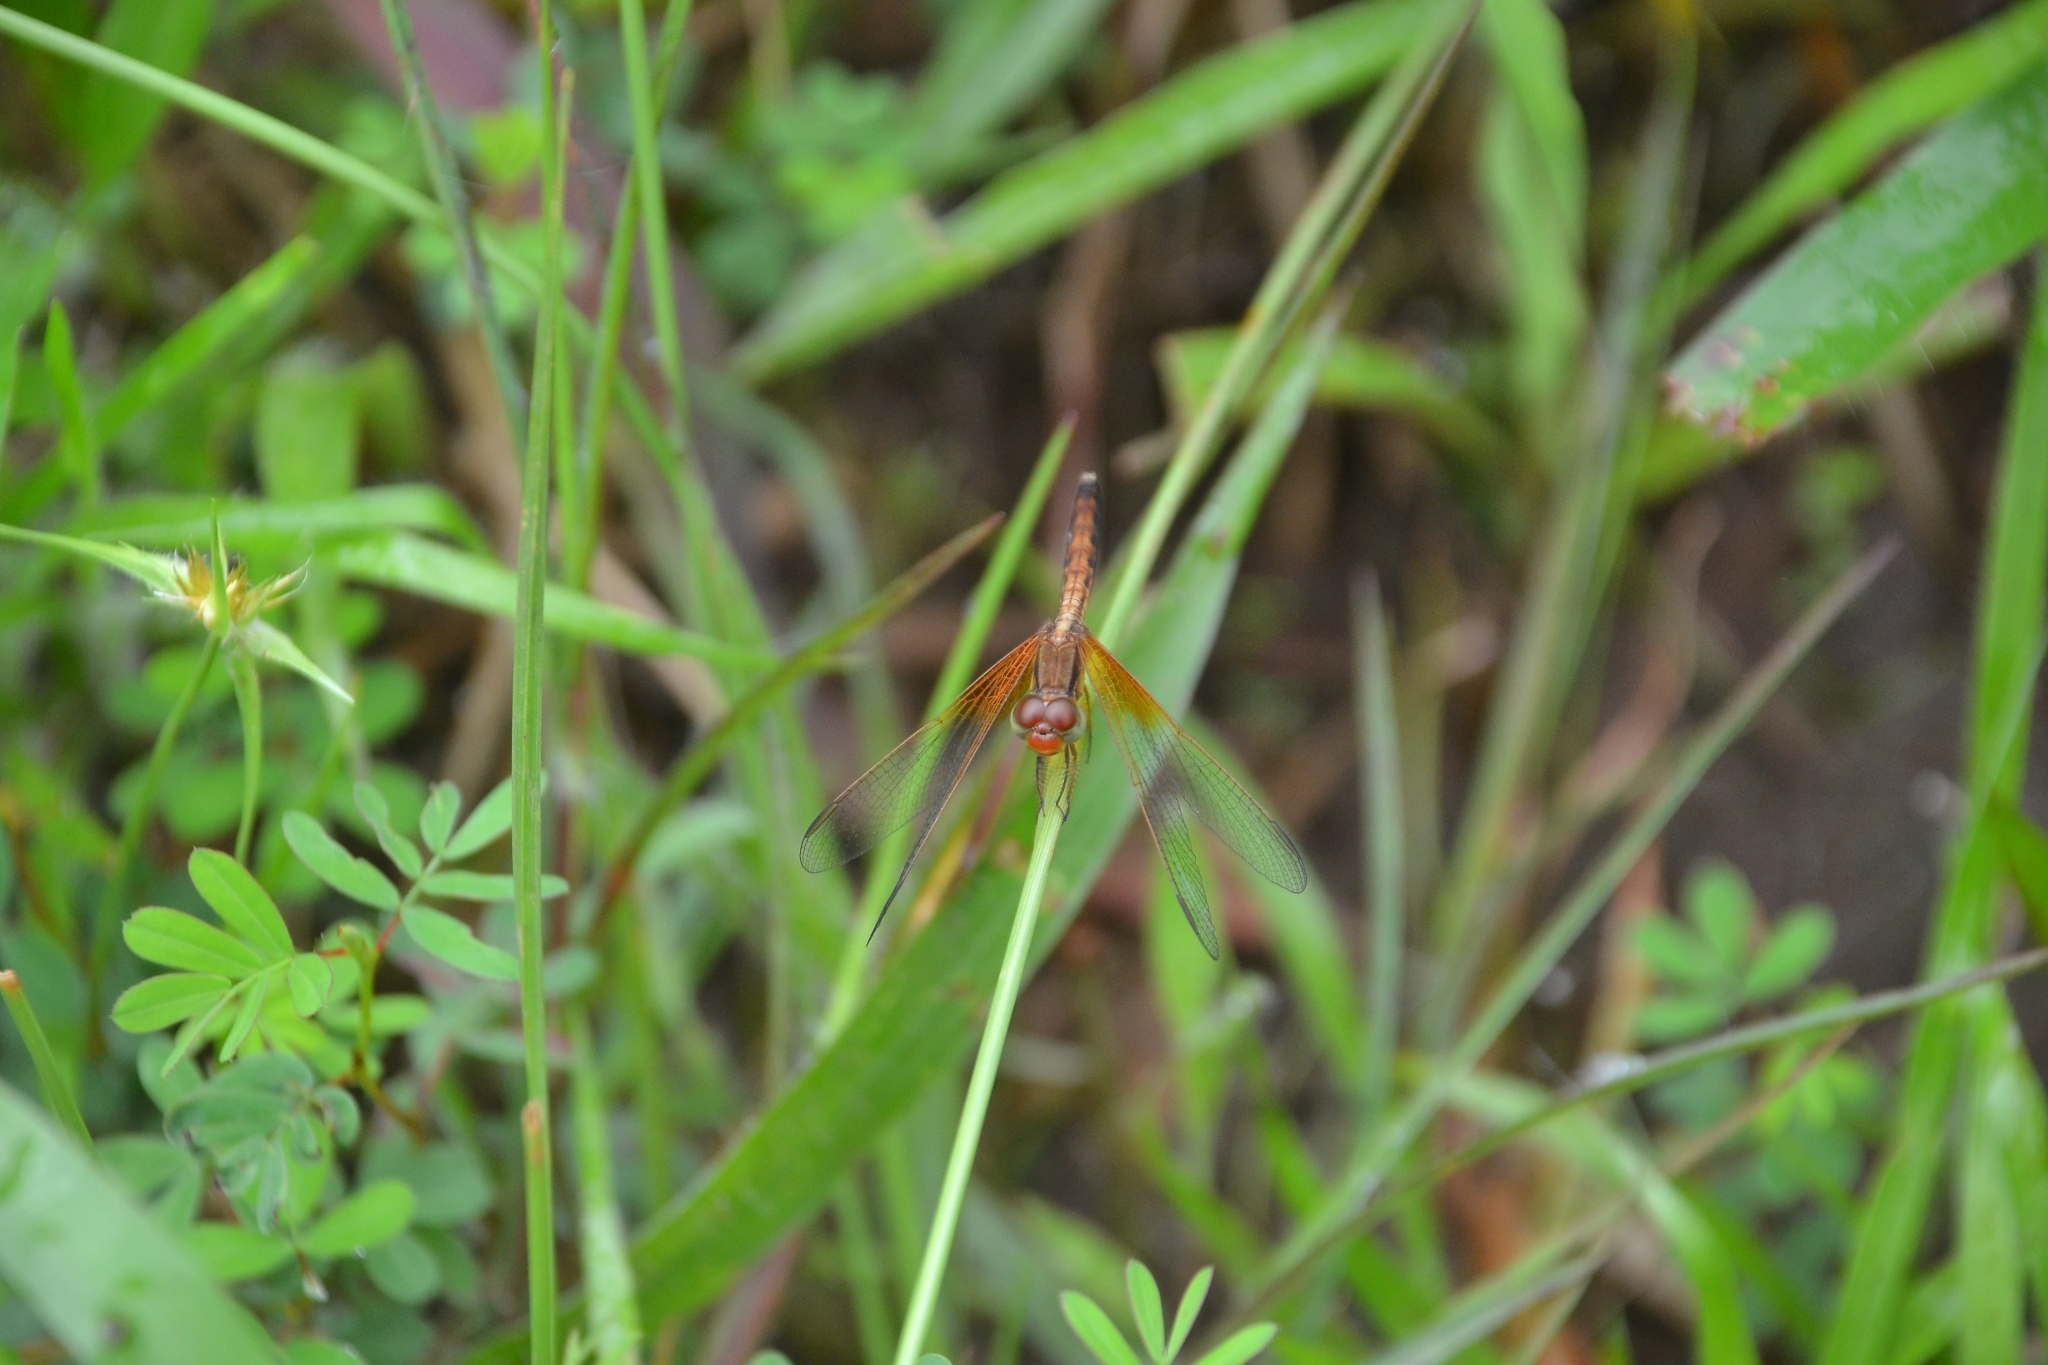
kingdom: Animalia
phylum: Arthropoda
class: Insecta
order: Odonata
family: Libellulidae
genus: Neurothemis
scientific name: Neurothemis intermedia
